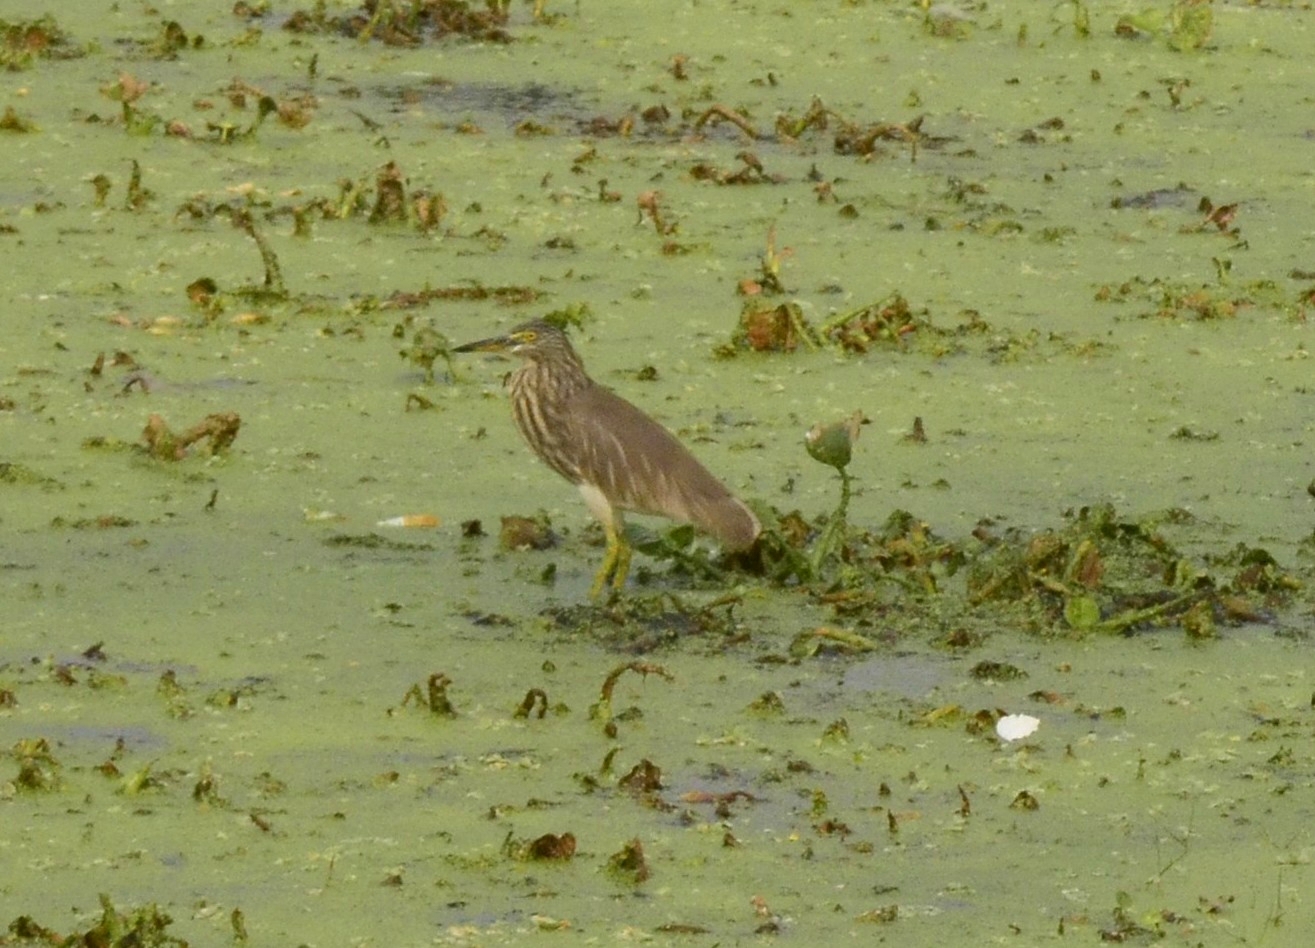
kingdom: Animalia
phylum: Chordata
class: Aves
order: Pelecaniformes
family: Ardeidae
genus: Ardeola
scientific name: Ardeola grayii
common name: Indian pond heron
